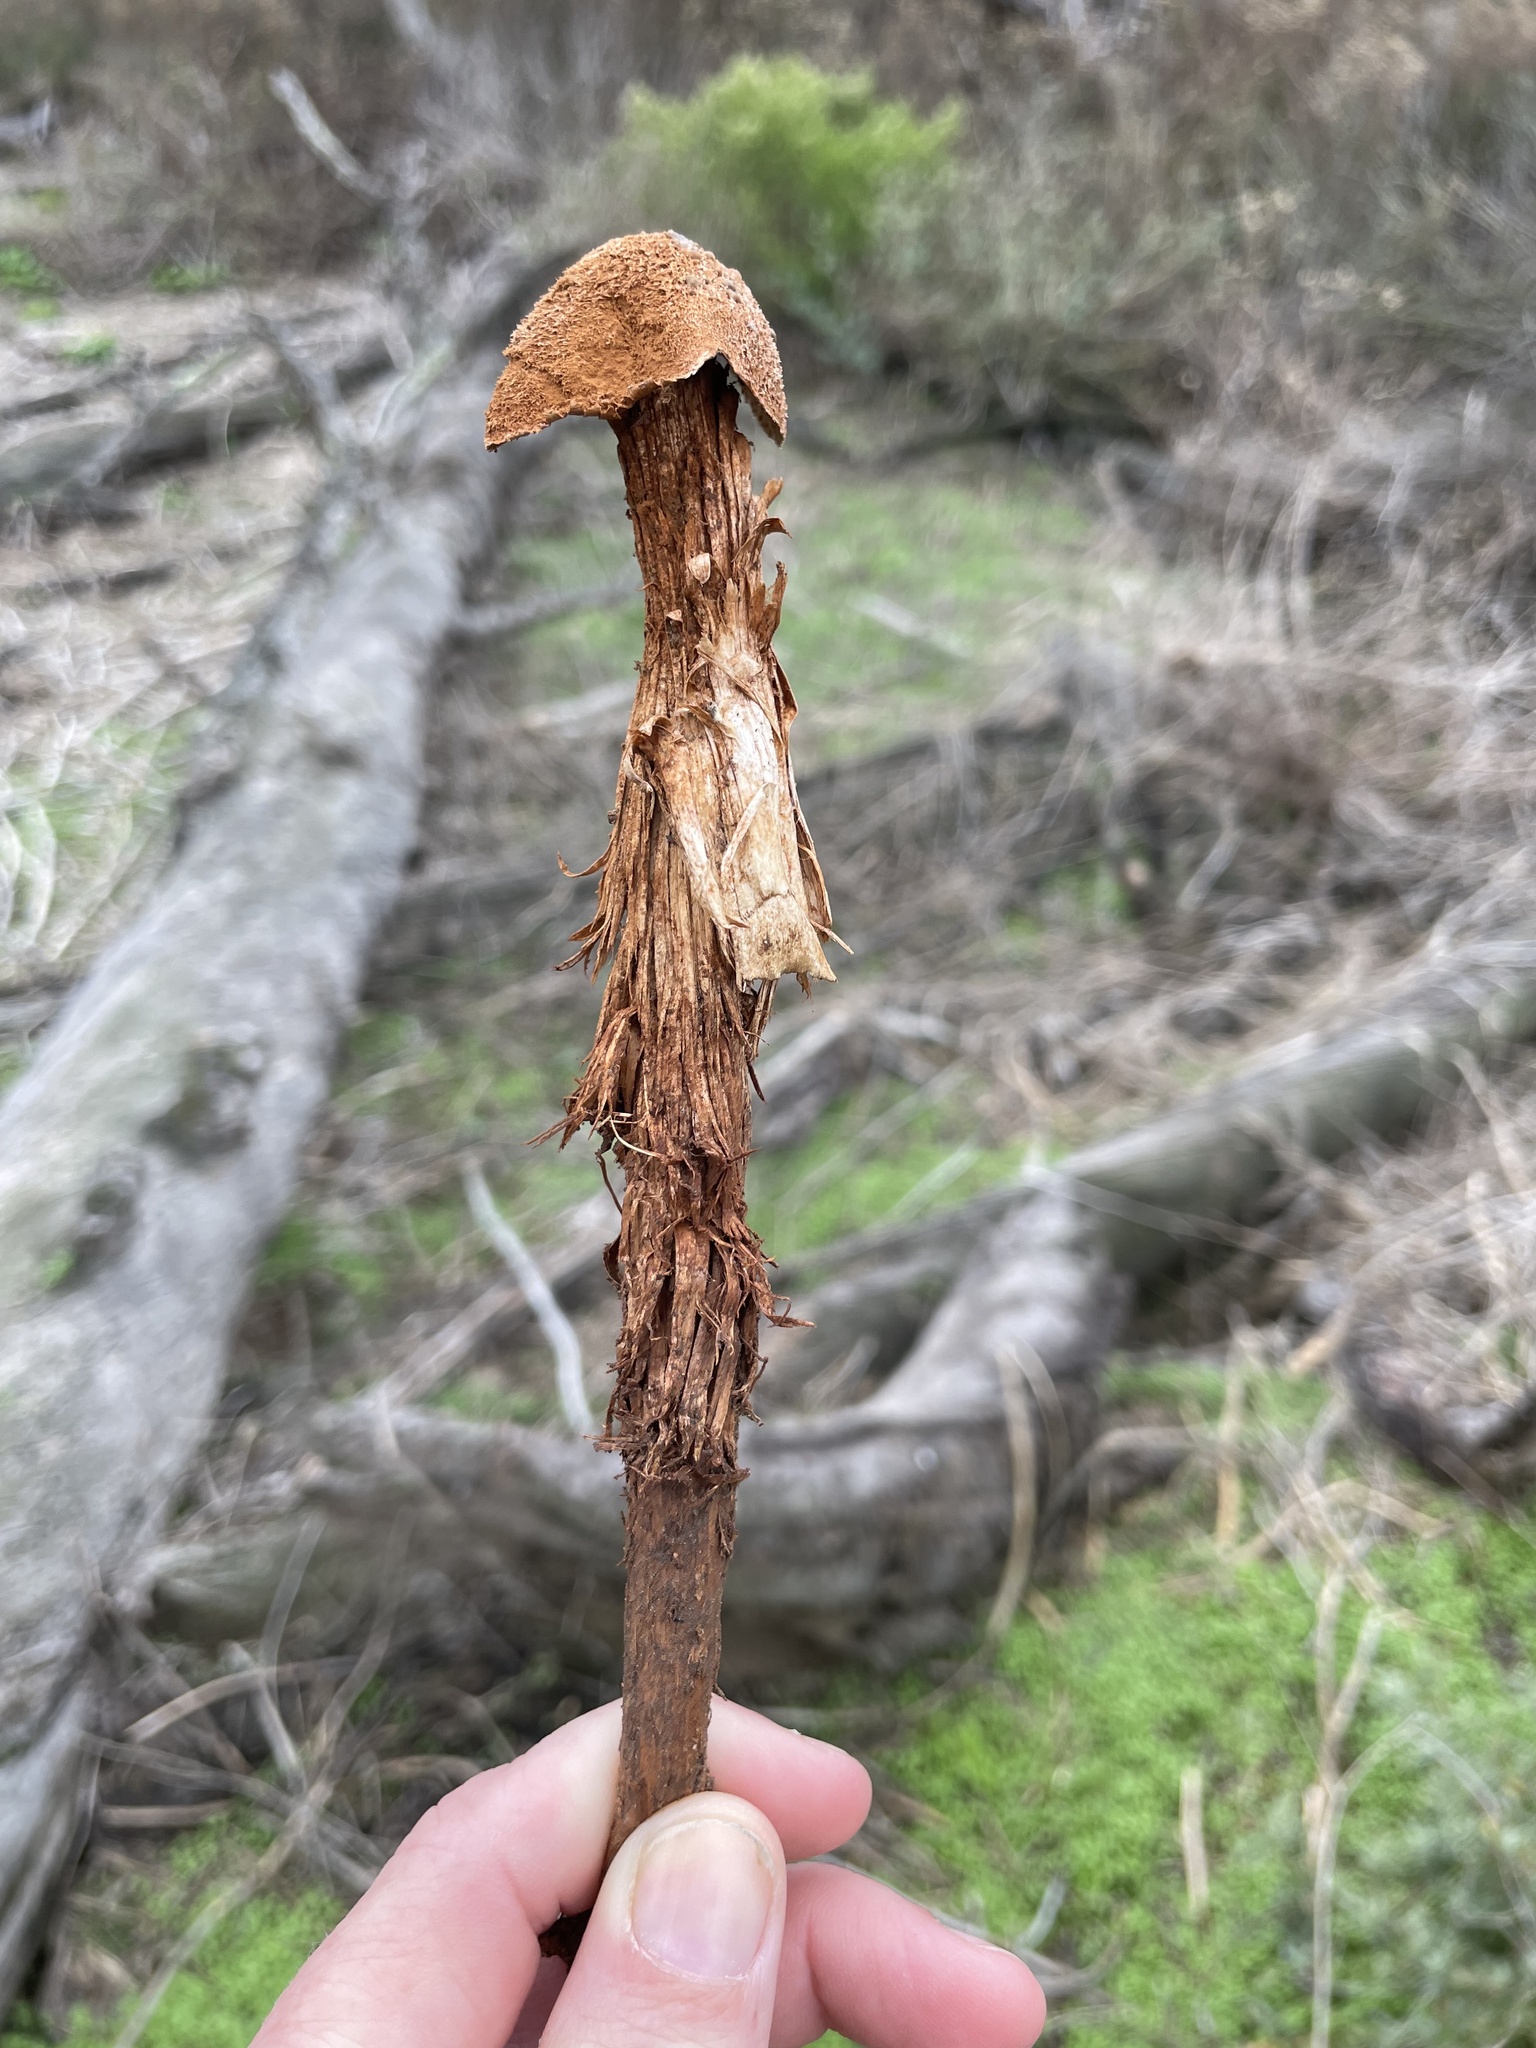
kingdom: Fungi
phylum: Basidiomycota
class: Agaricomycetes
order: Agaricales
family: Agaricaceae
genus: Battarrea
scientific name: Battarrea phalloides
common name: Sandy stiltball
